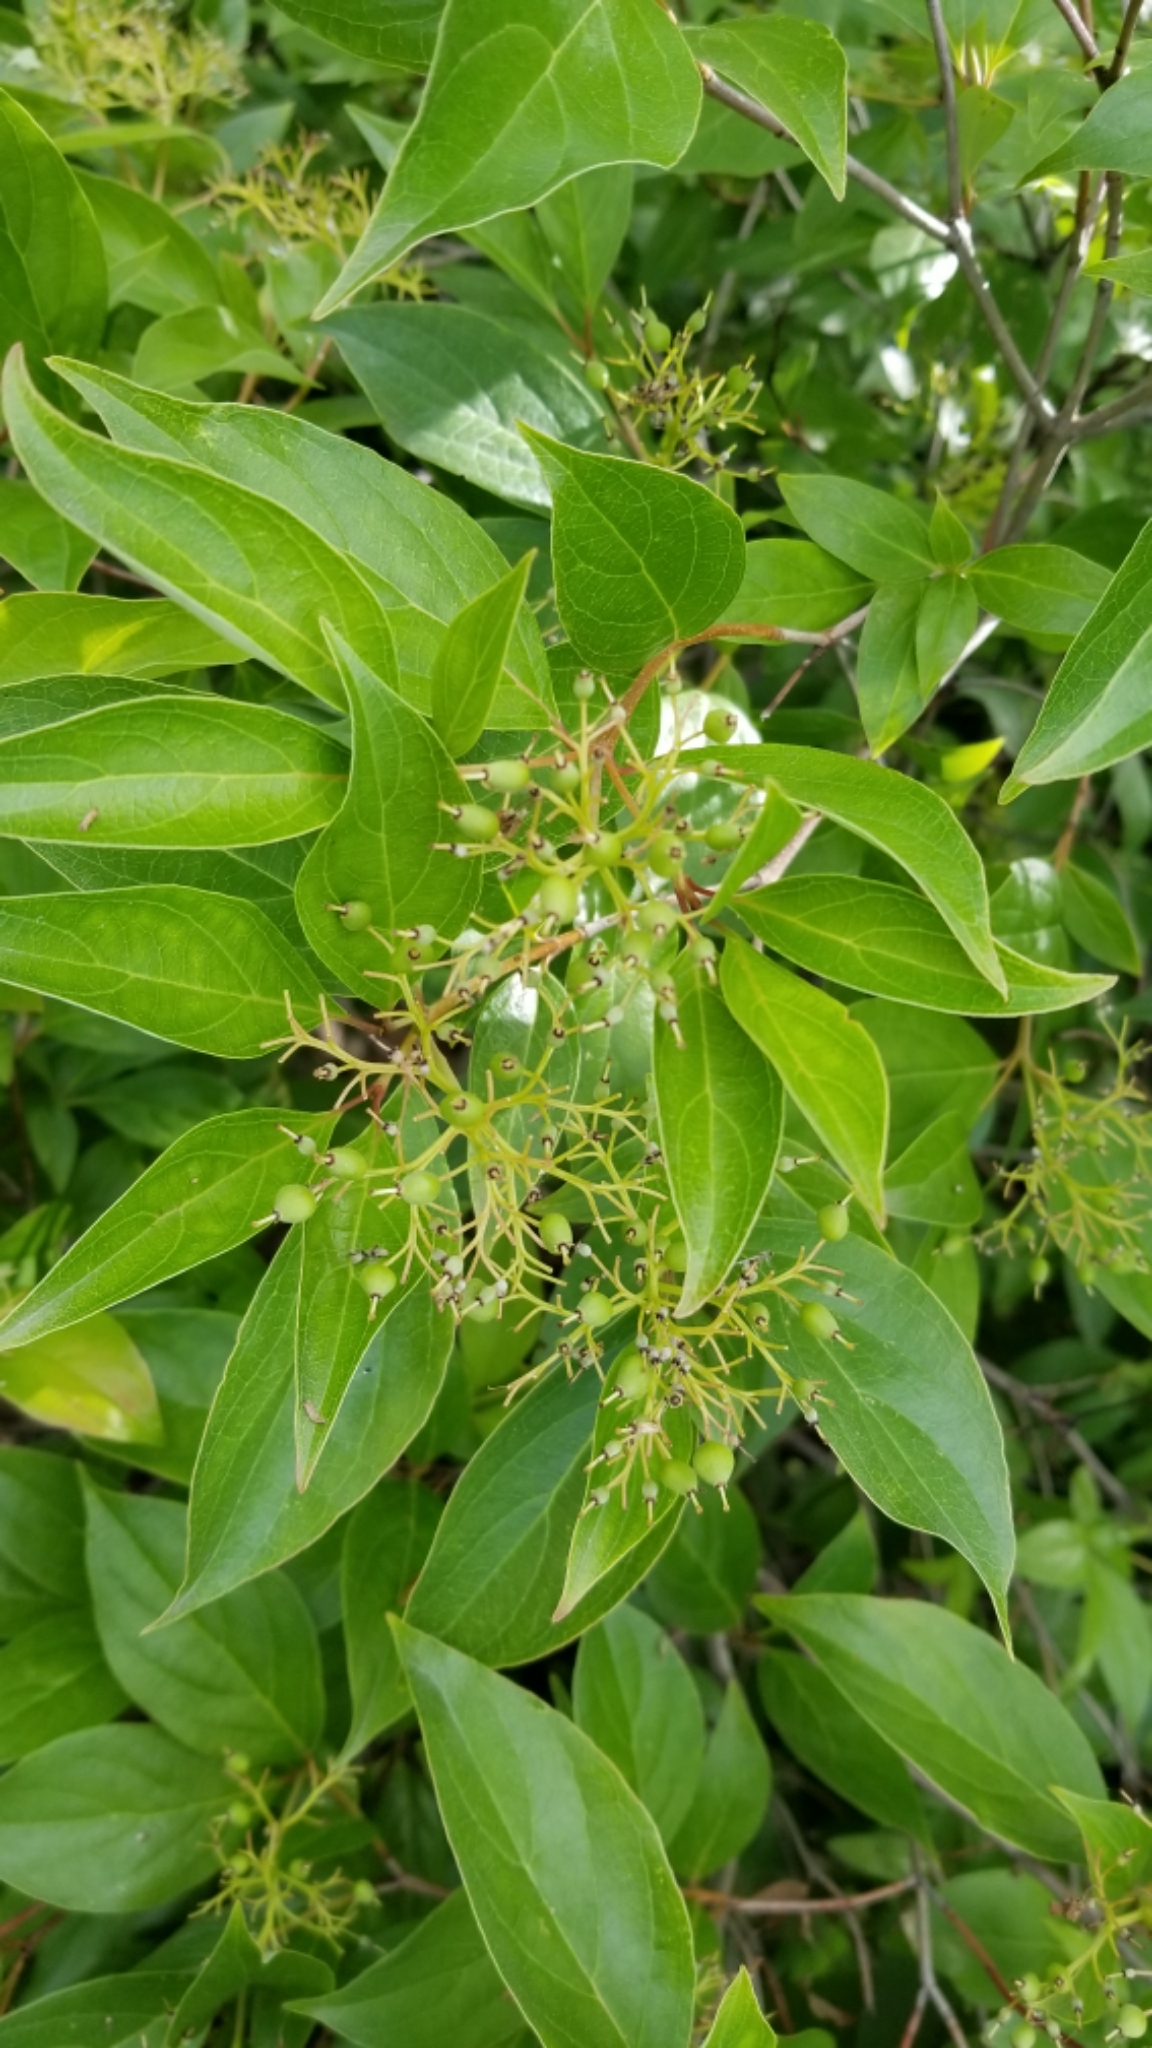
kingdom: Plantae
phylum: Tracheophyta
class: Magnoliopsida
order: Cornales
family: Cornaceae
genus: Cornus
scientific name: Cornus racemosa
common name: Panicled dogwood
